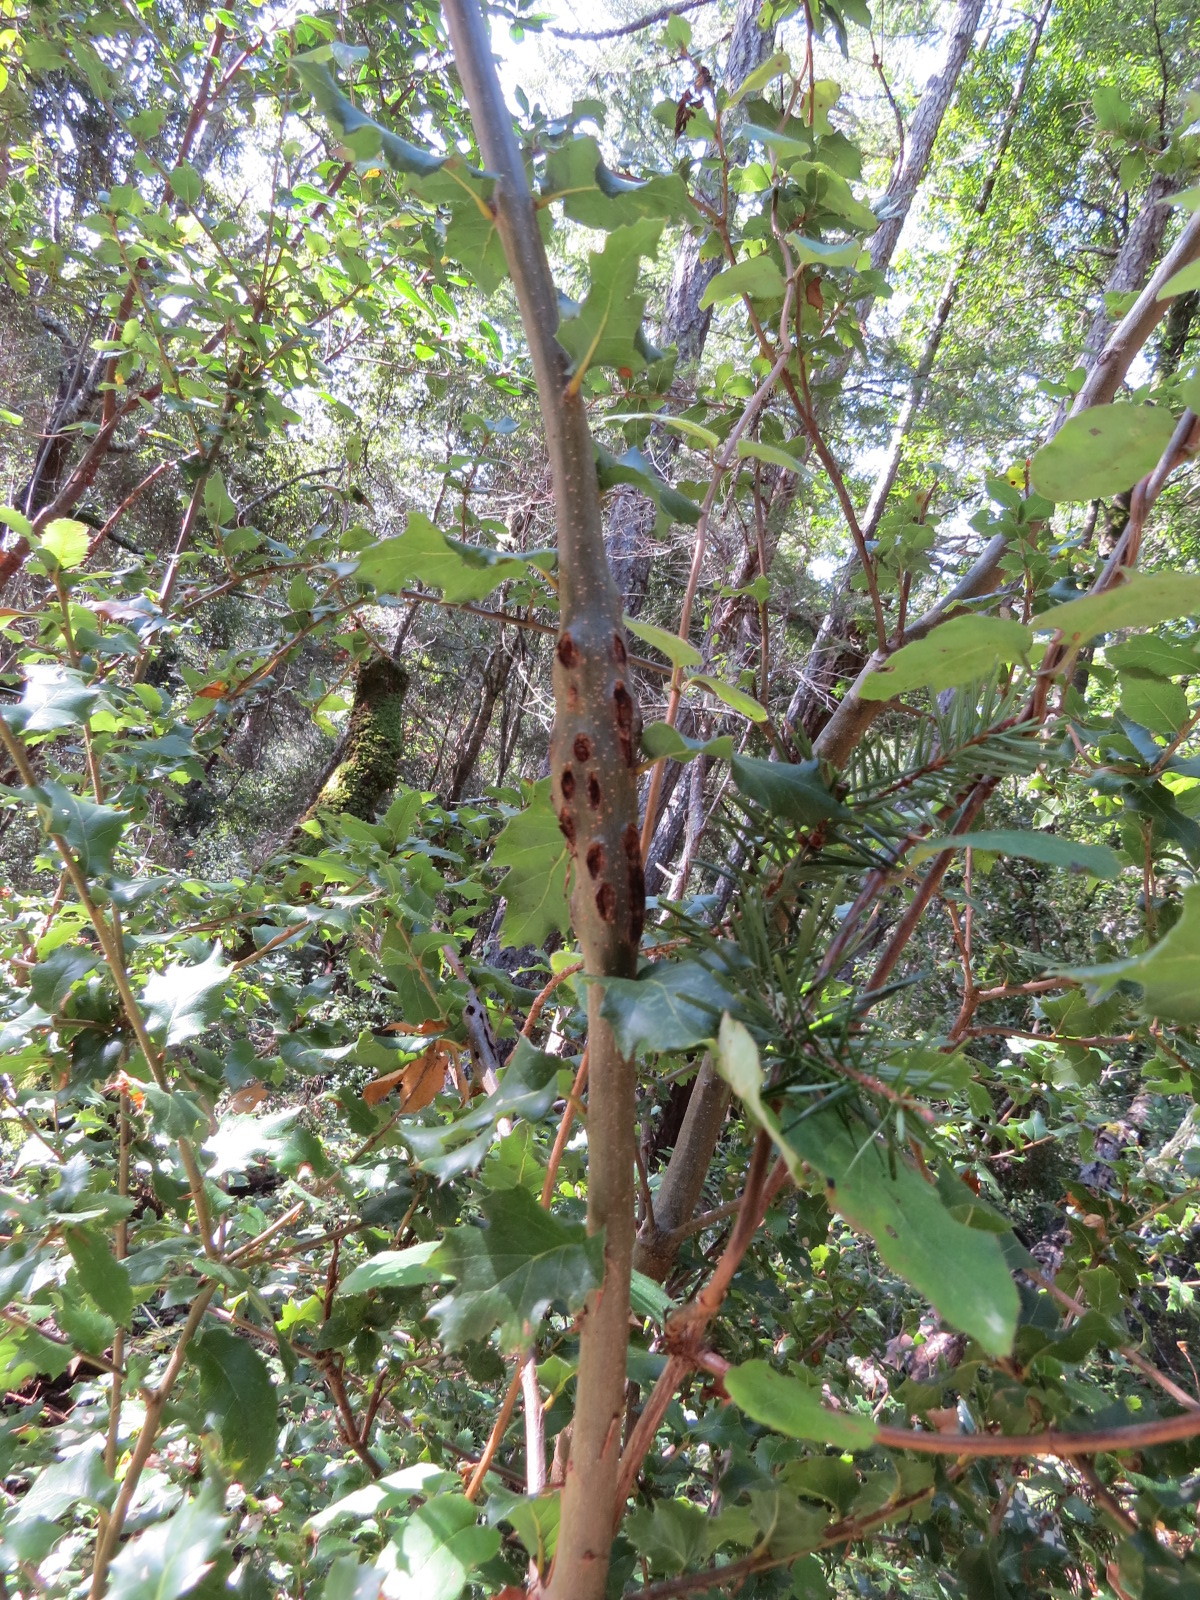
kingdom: Animalia
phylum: Arthropoda
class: Insecta
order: Hymenoptera
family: Cynipidae
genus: Callirhytis
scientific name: Callirhytis
